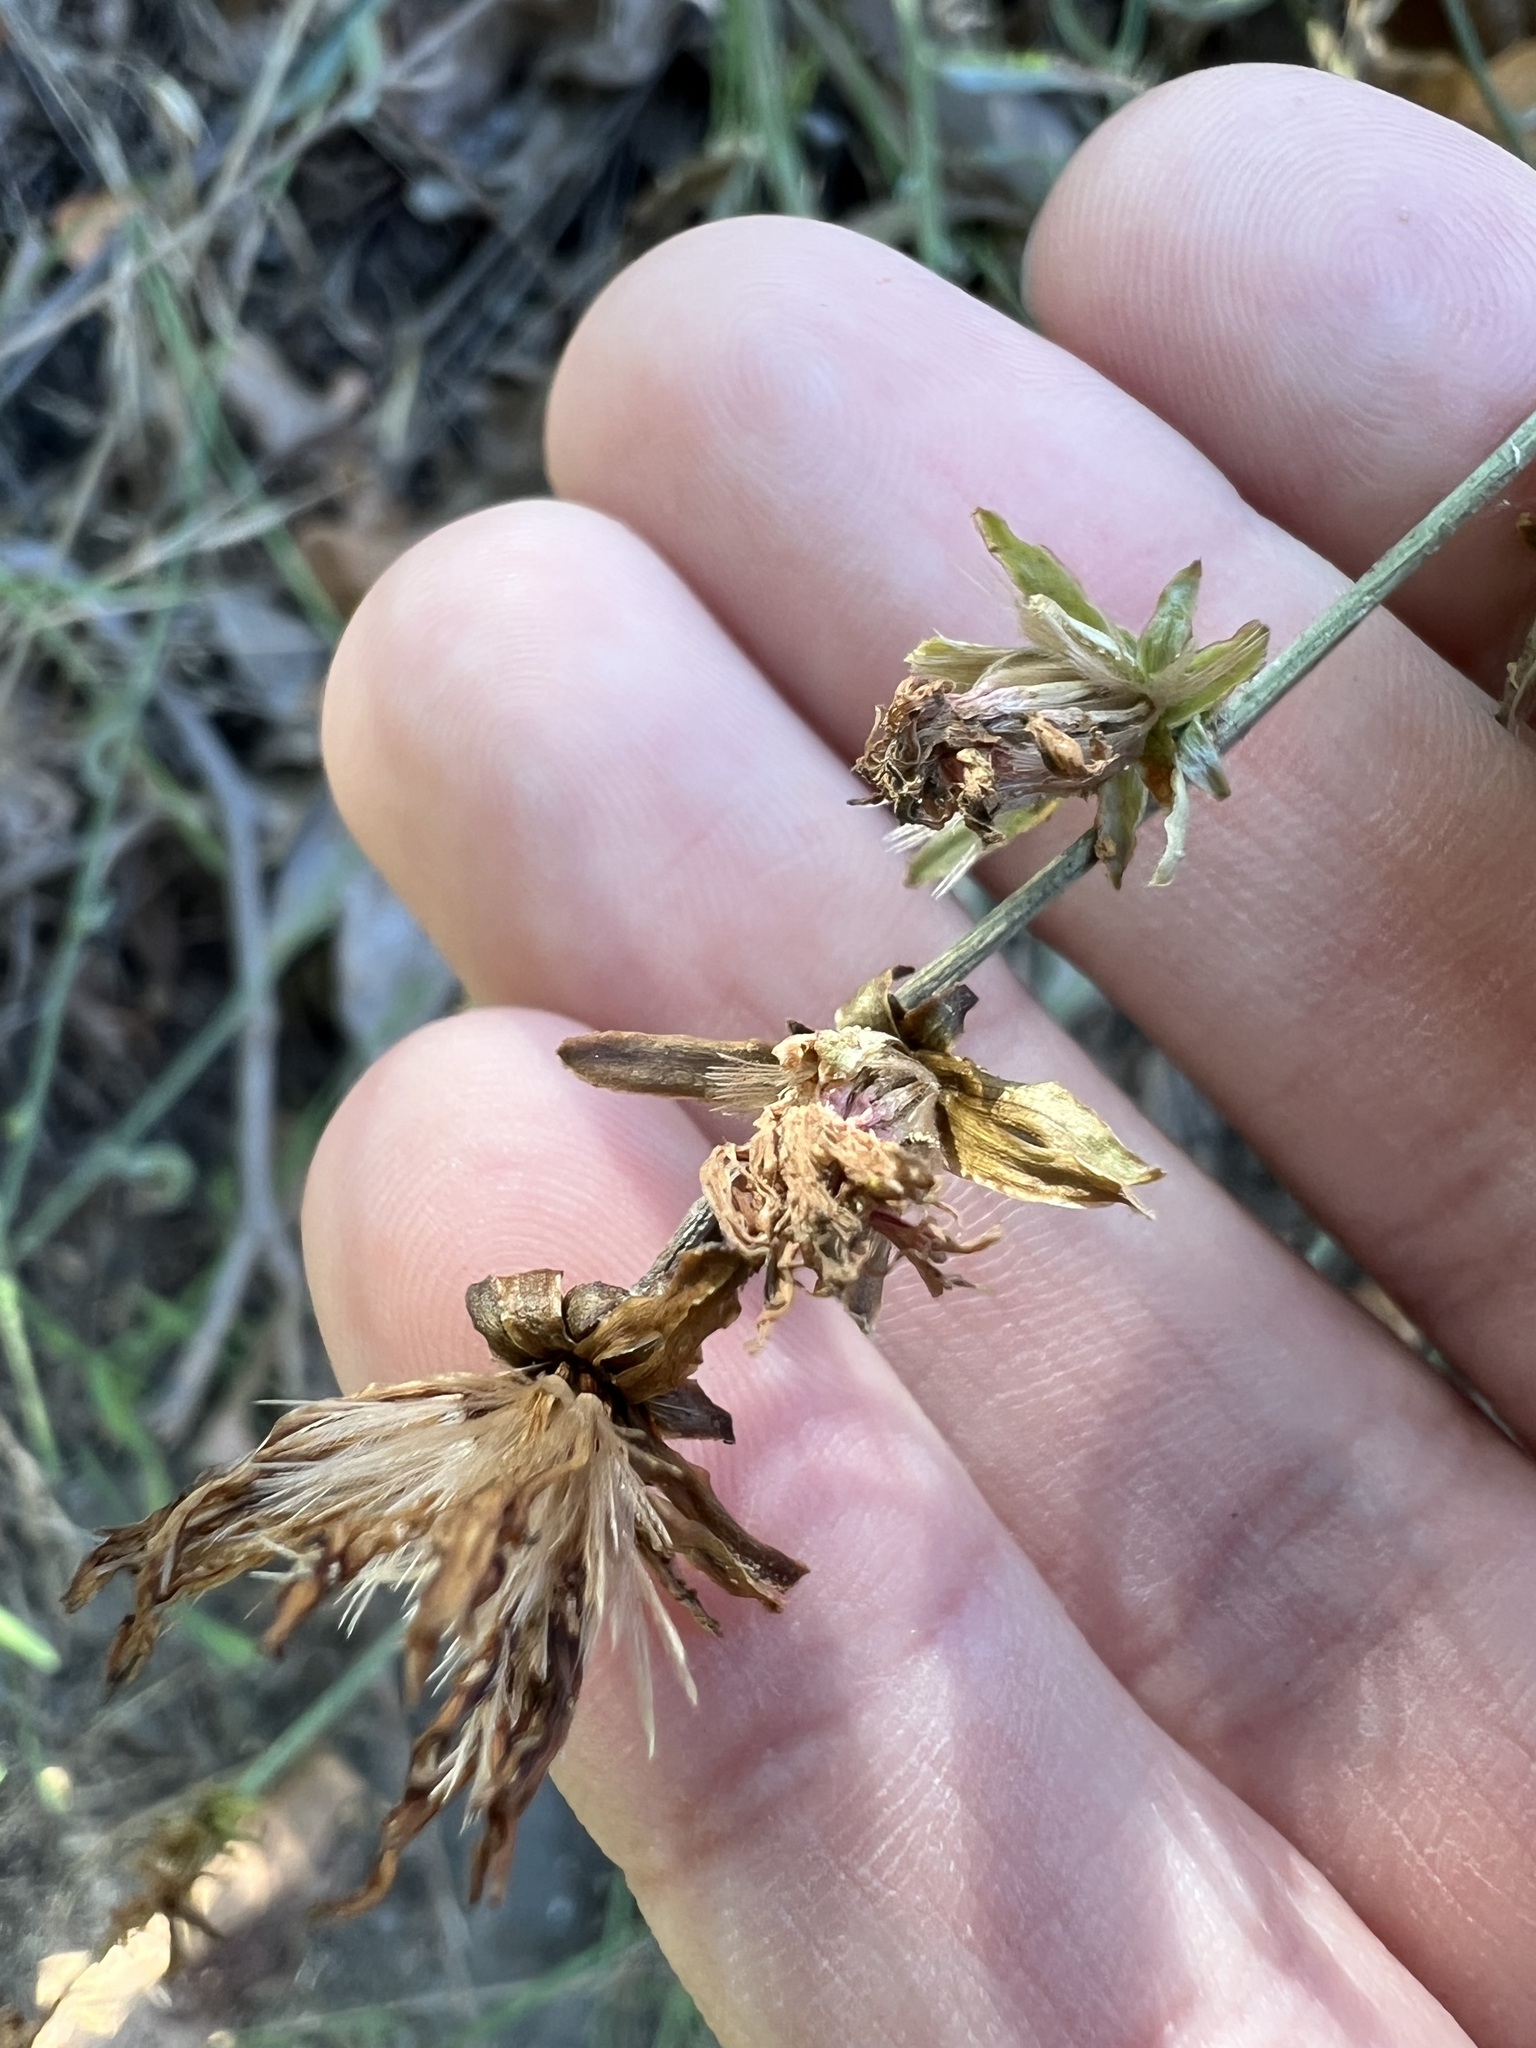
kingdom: Plantae
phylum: Tracheophyta
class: Magnoliopsida
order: Asterales
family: Asteraceae
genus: Stephanomeria
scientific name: Stephanomeria cichoriacea
